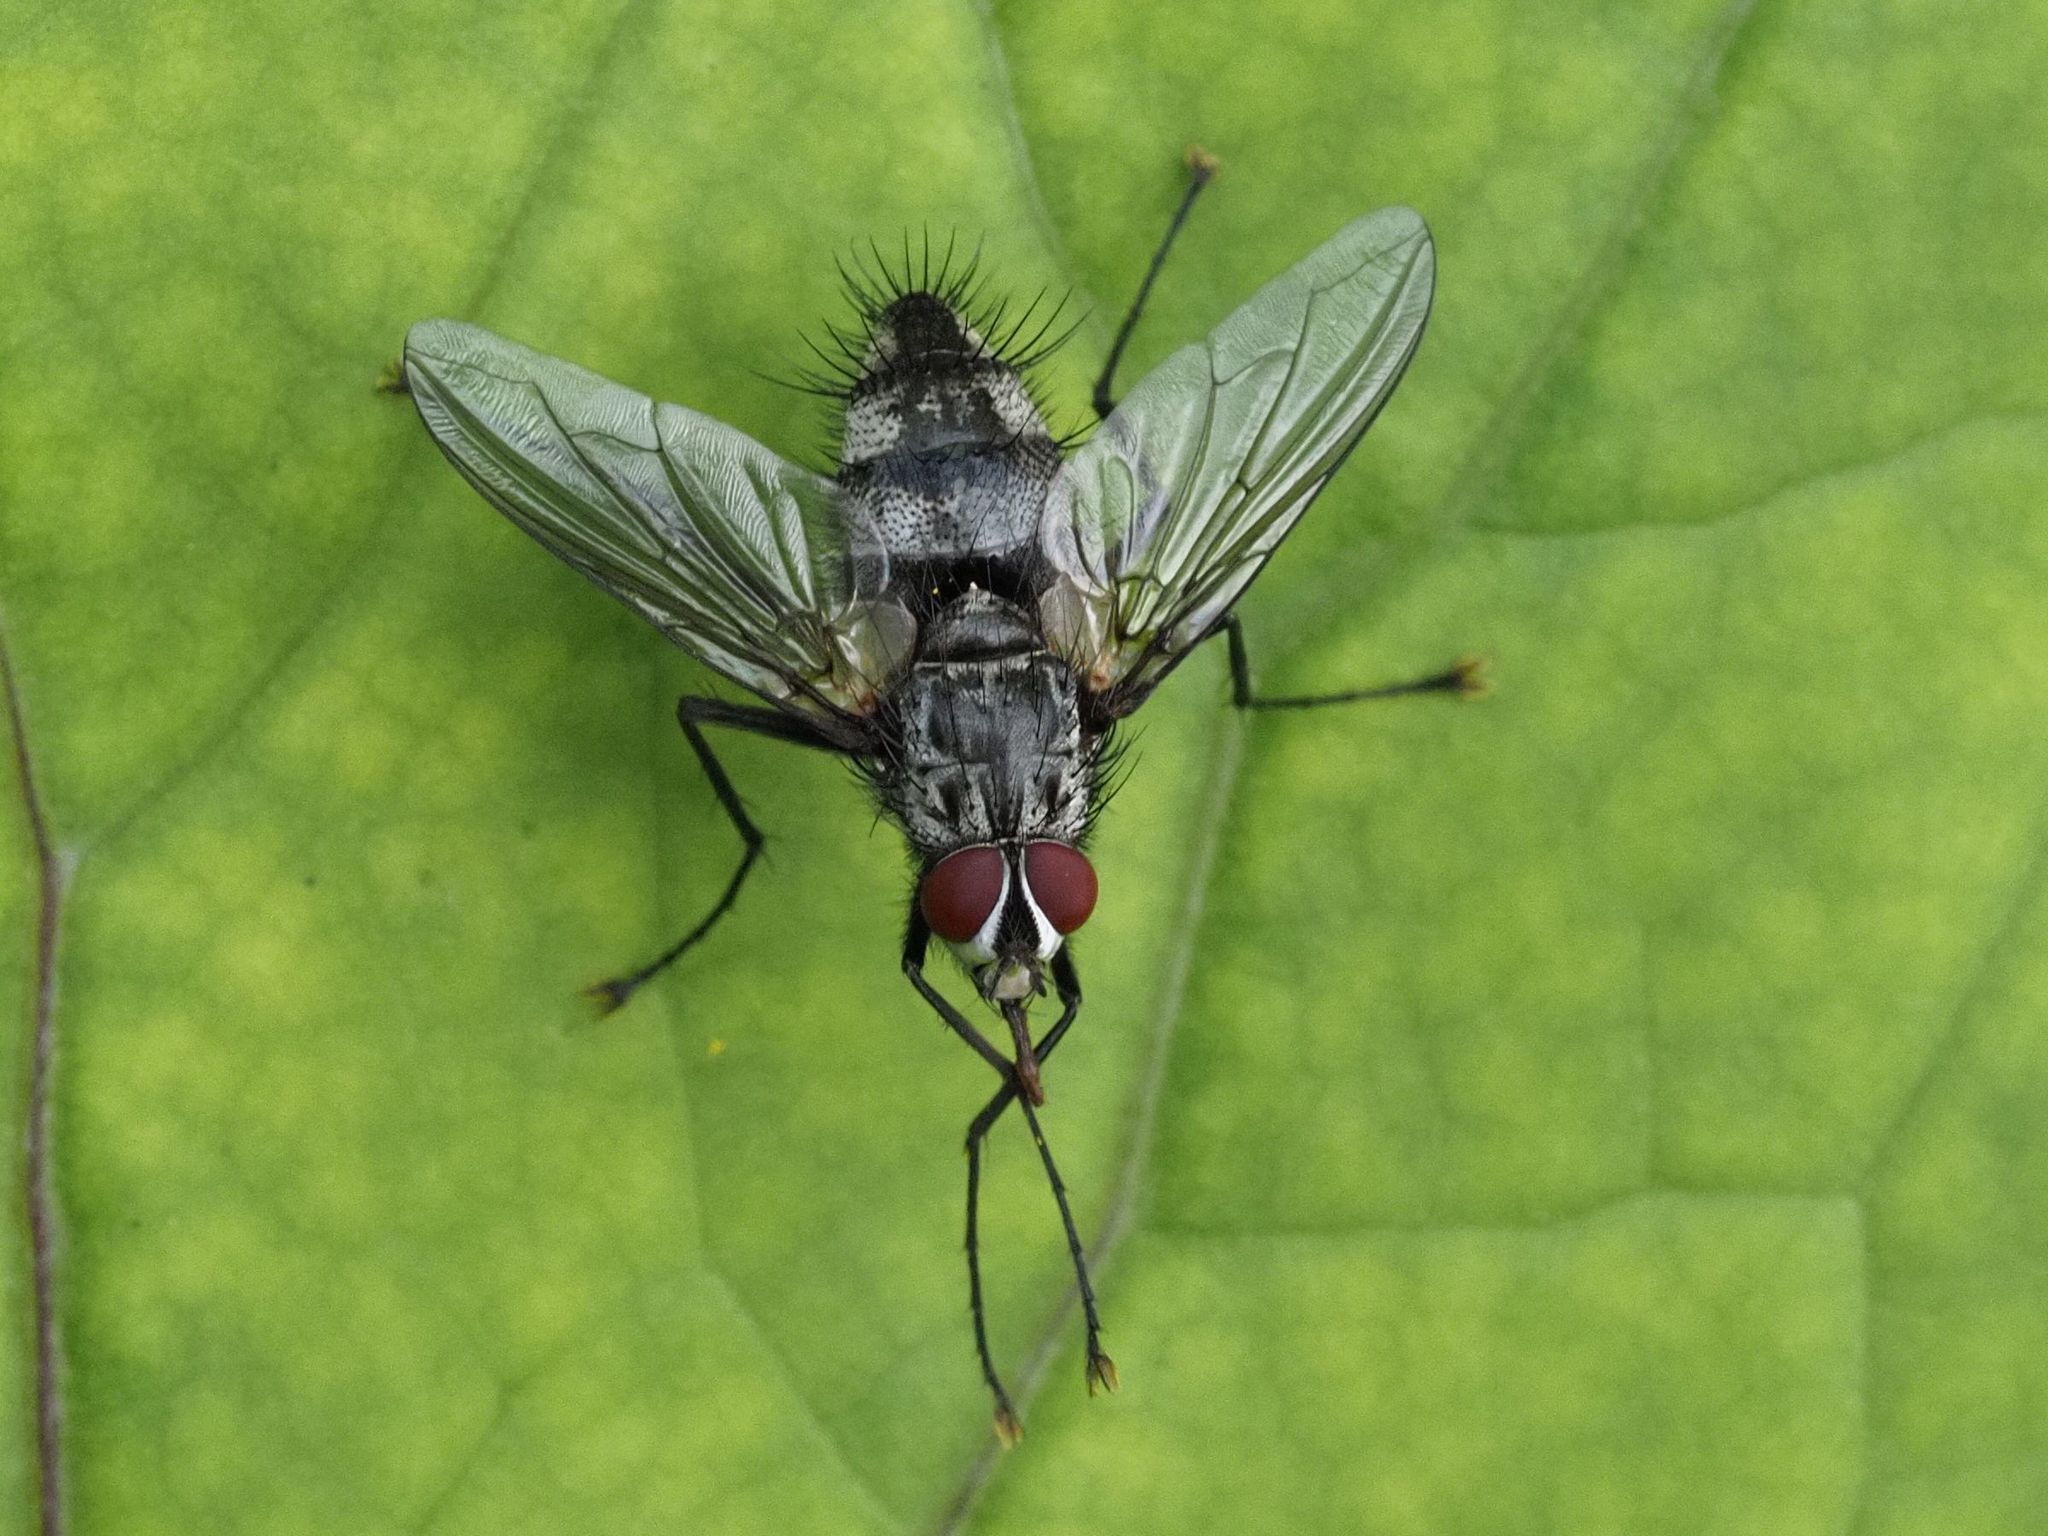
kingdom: Animalia
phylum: Arthropoda
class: Insecta
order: Diptera
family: Tachinidae
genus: Dinera
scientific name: Dinera ferina
